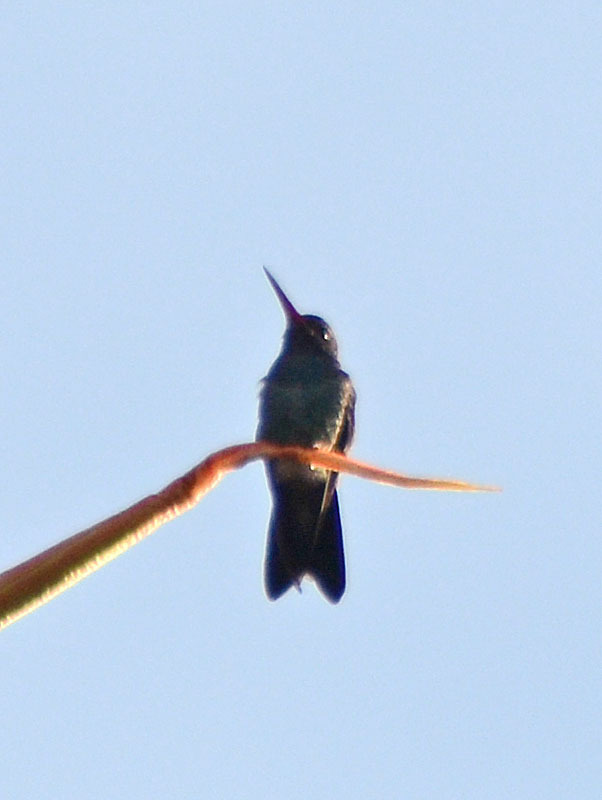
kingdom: Animalia
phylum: Chordata
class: Aves
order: Apodiformes
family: Trochilidae
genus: Cynanthus
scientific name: Cynanthus latirostris
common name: Broad-billed hummingbird
